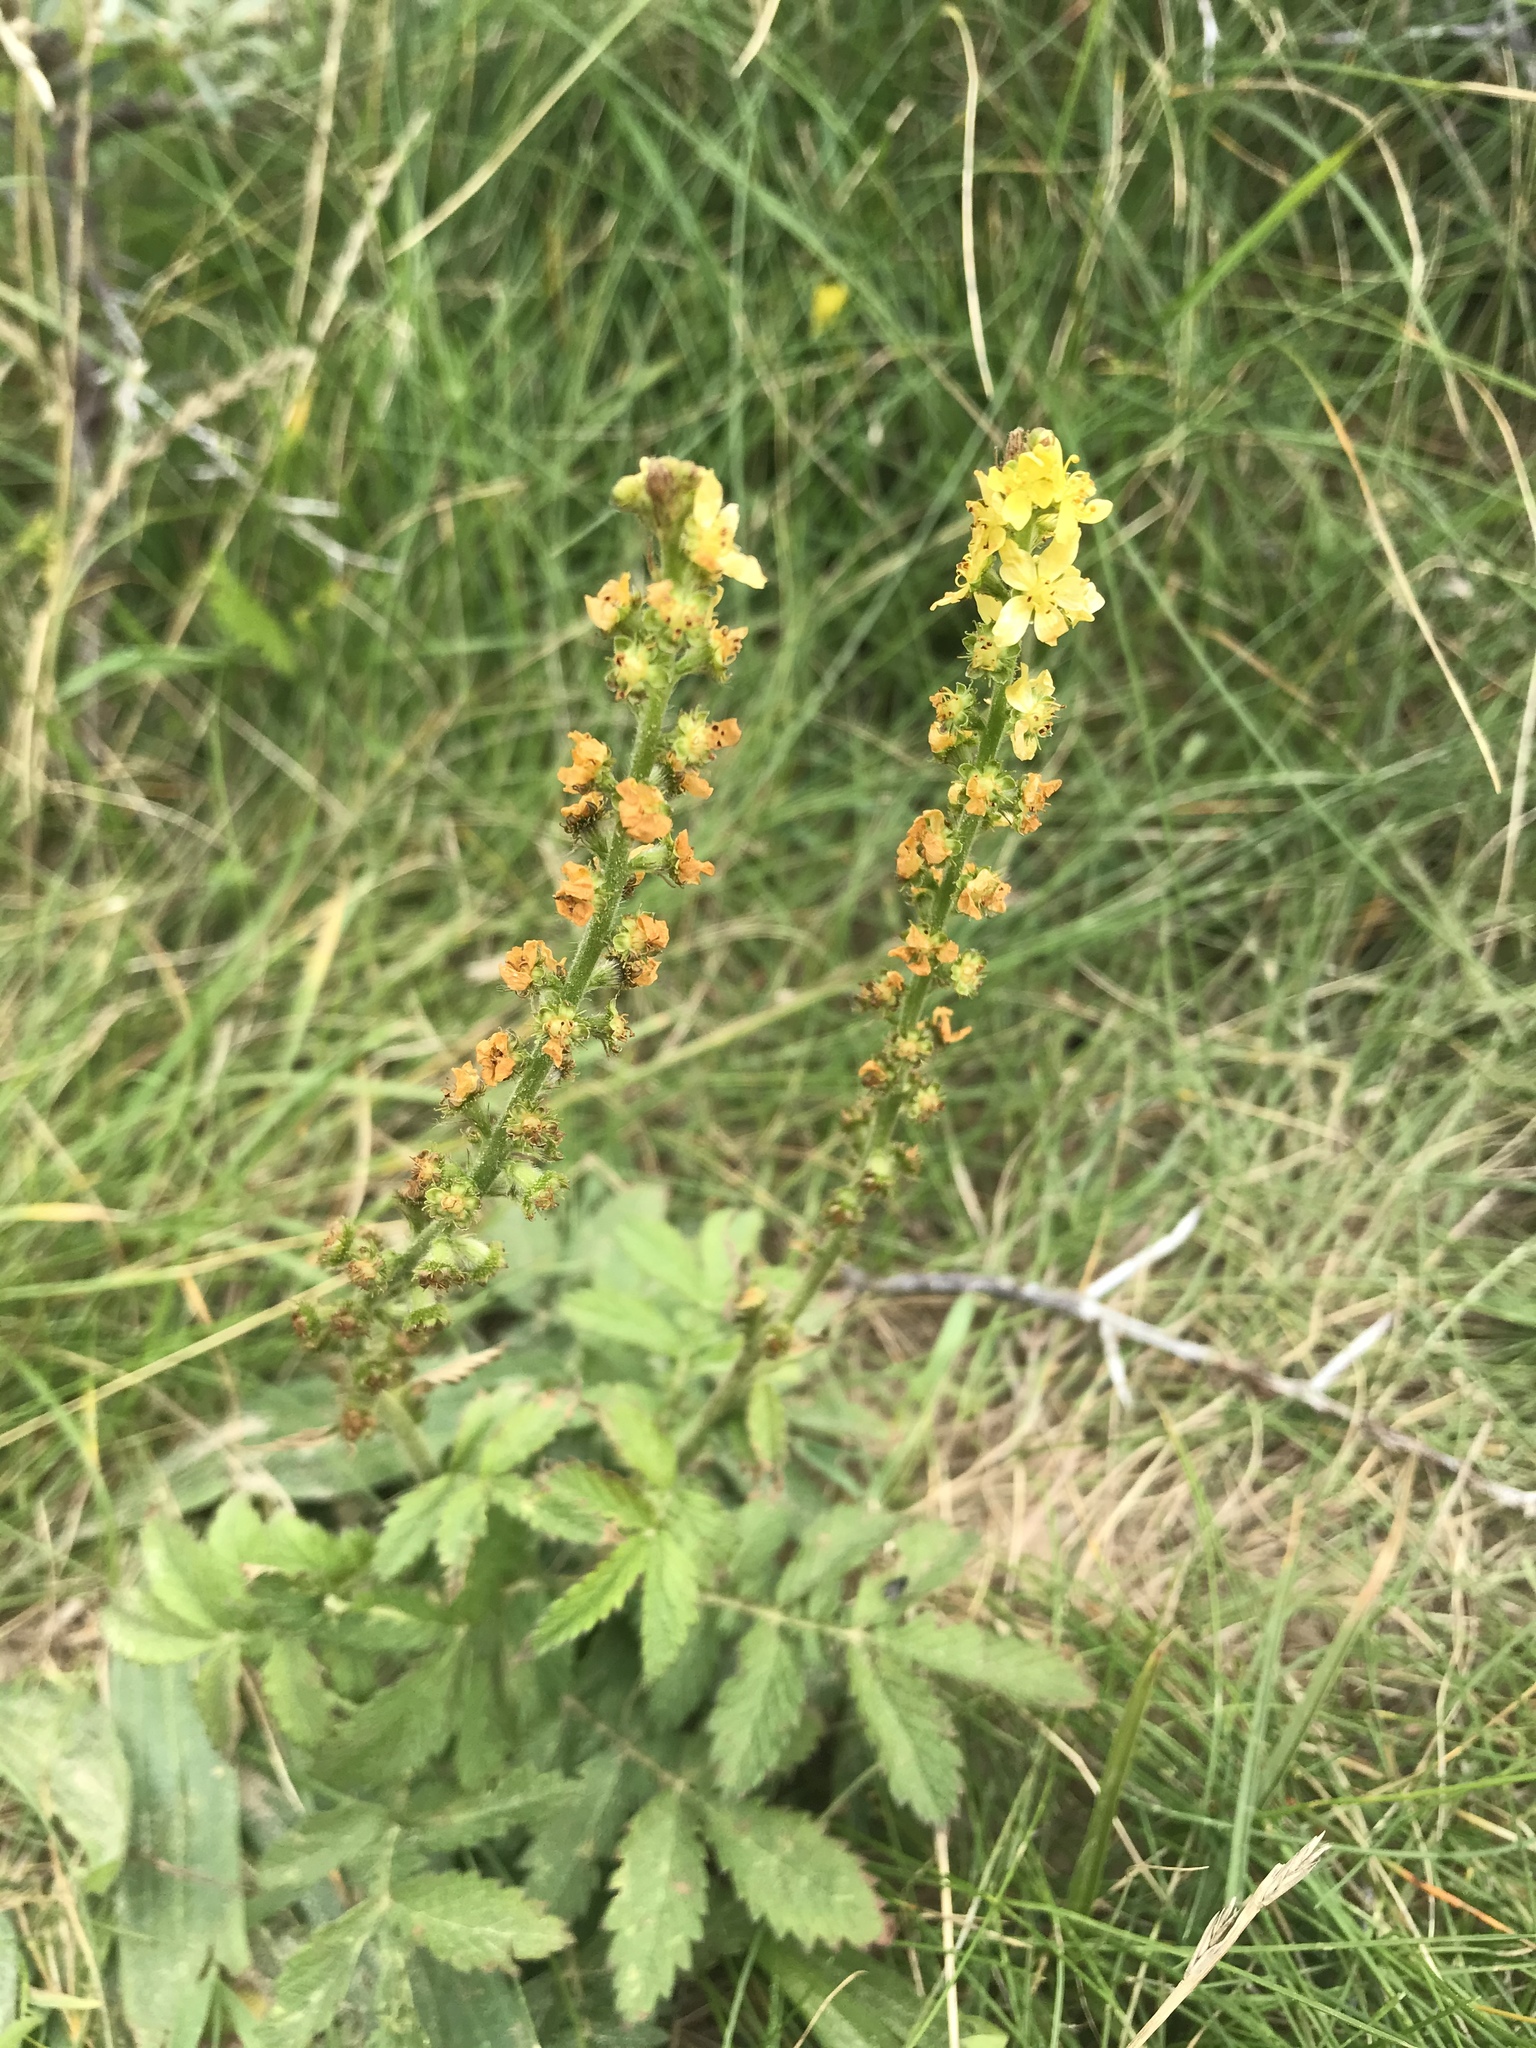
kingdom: Plantae
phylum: Tracheophyta
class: Magnoliopsida
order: Rosales
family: Rosaceae
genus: Agrimonia
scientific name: Agrimonia eupatoria
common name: Agrimony
